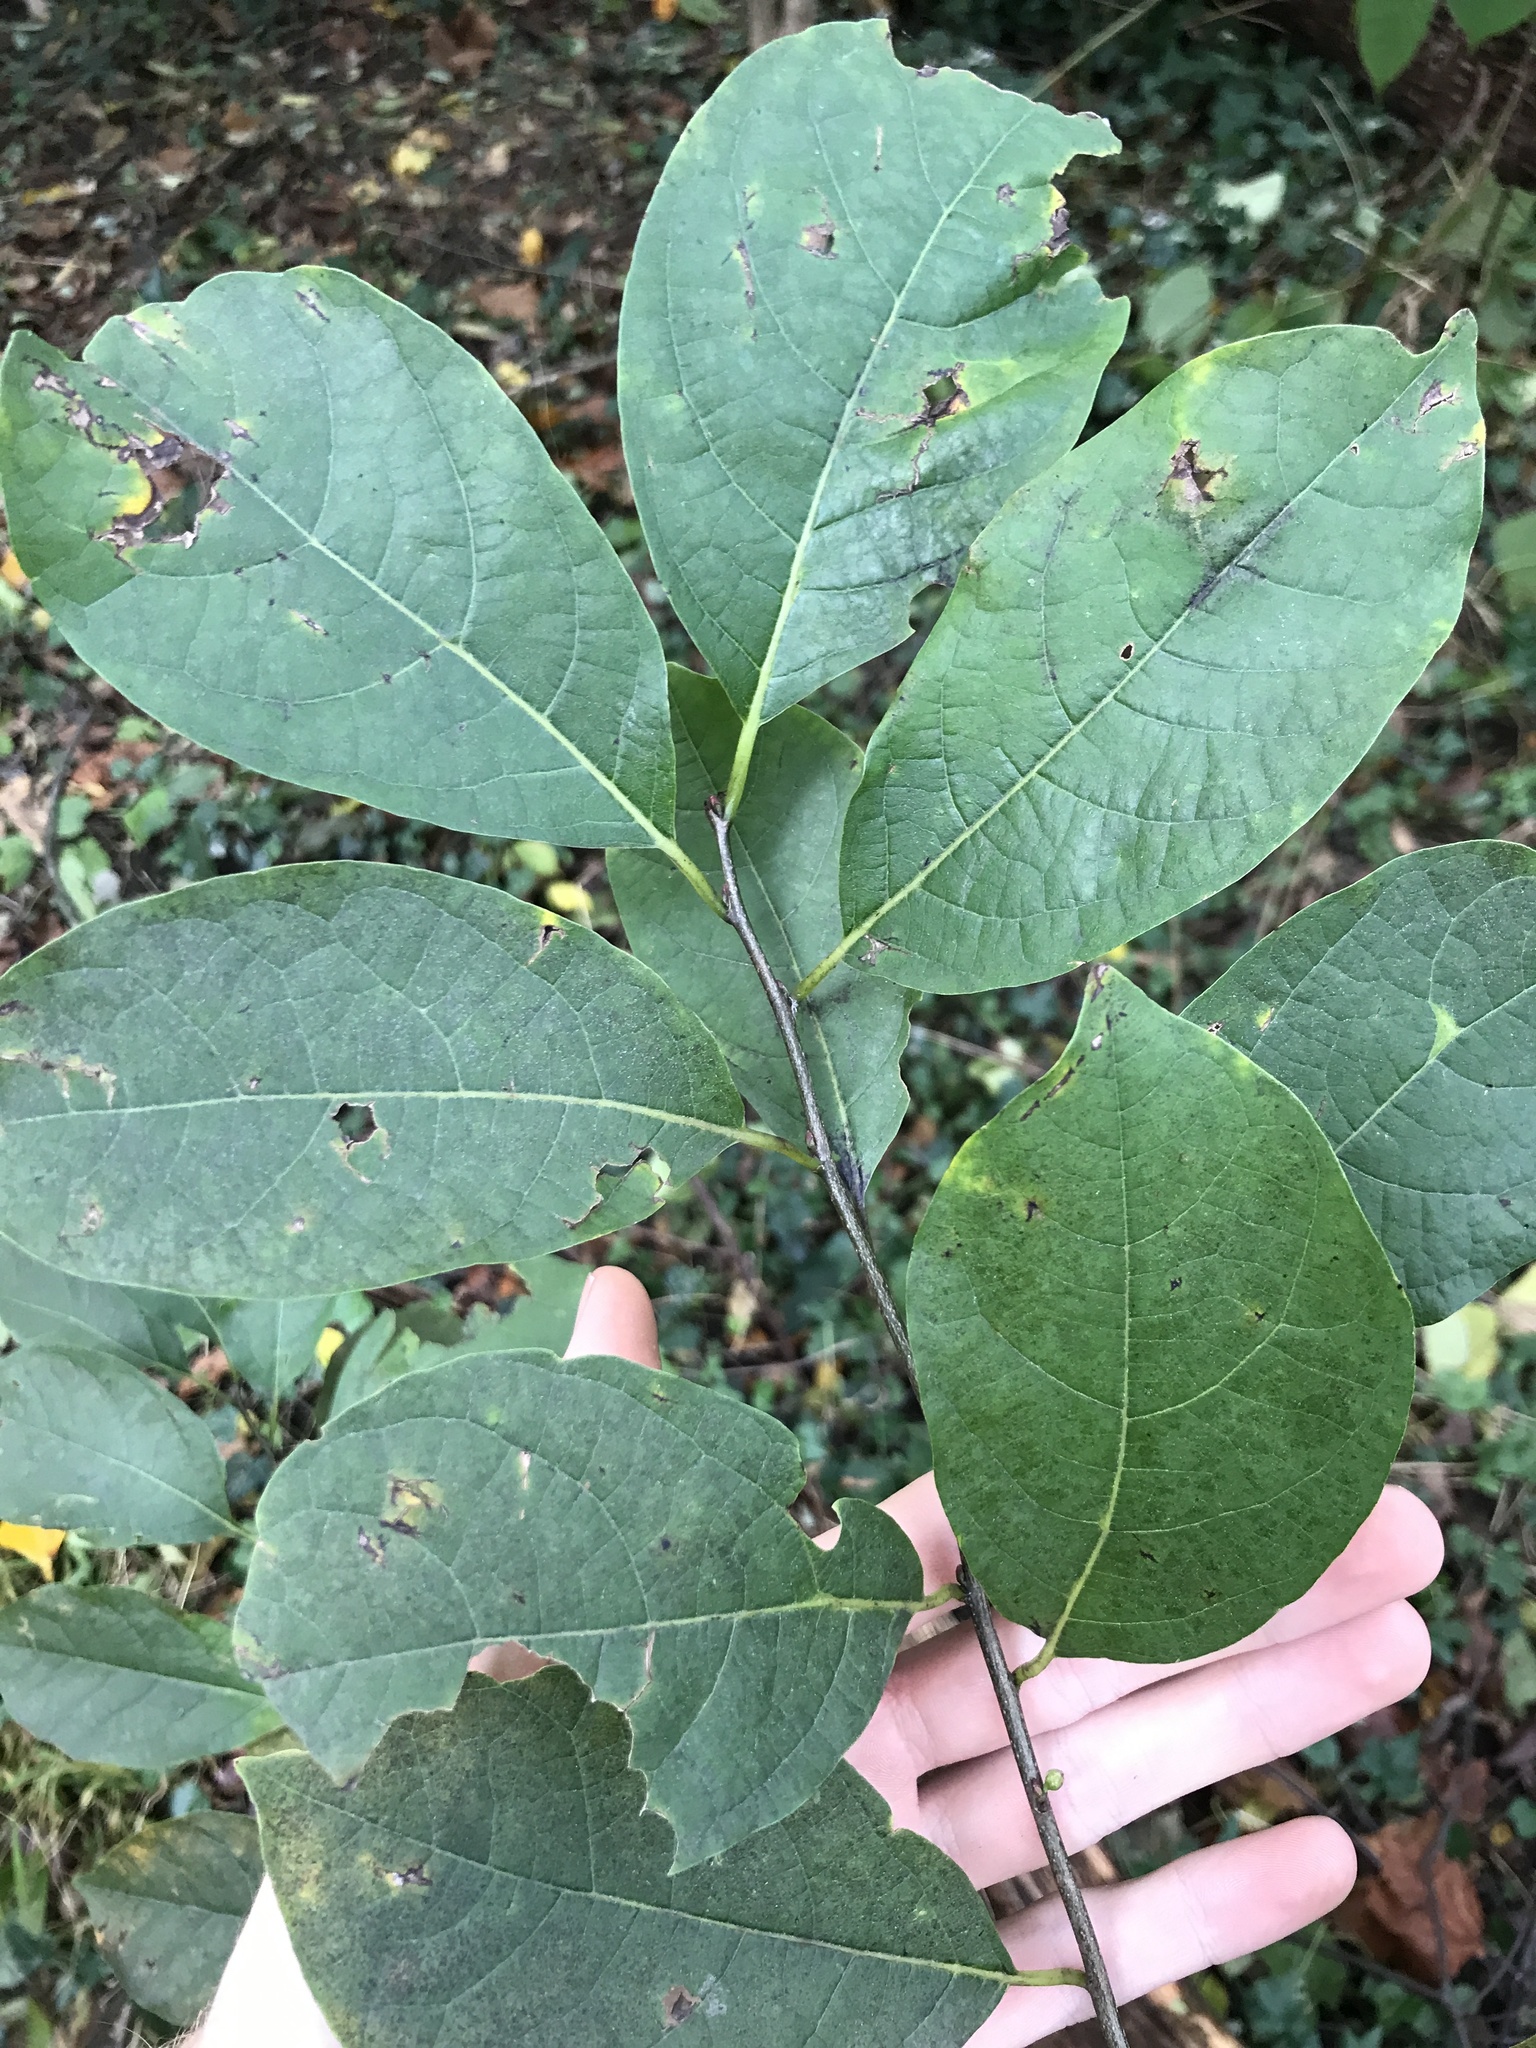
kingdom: Plantae
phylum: Tracheophyta
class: Magnoliopsida
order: Laurales
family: Lauraceae
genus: Lindera
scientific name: Lindera benzoin
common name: Spicebush
